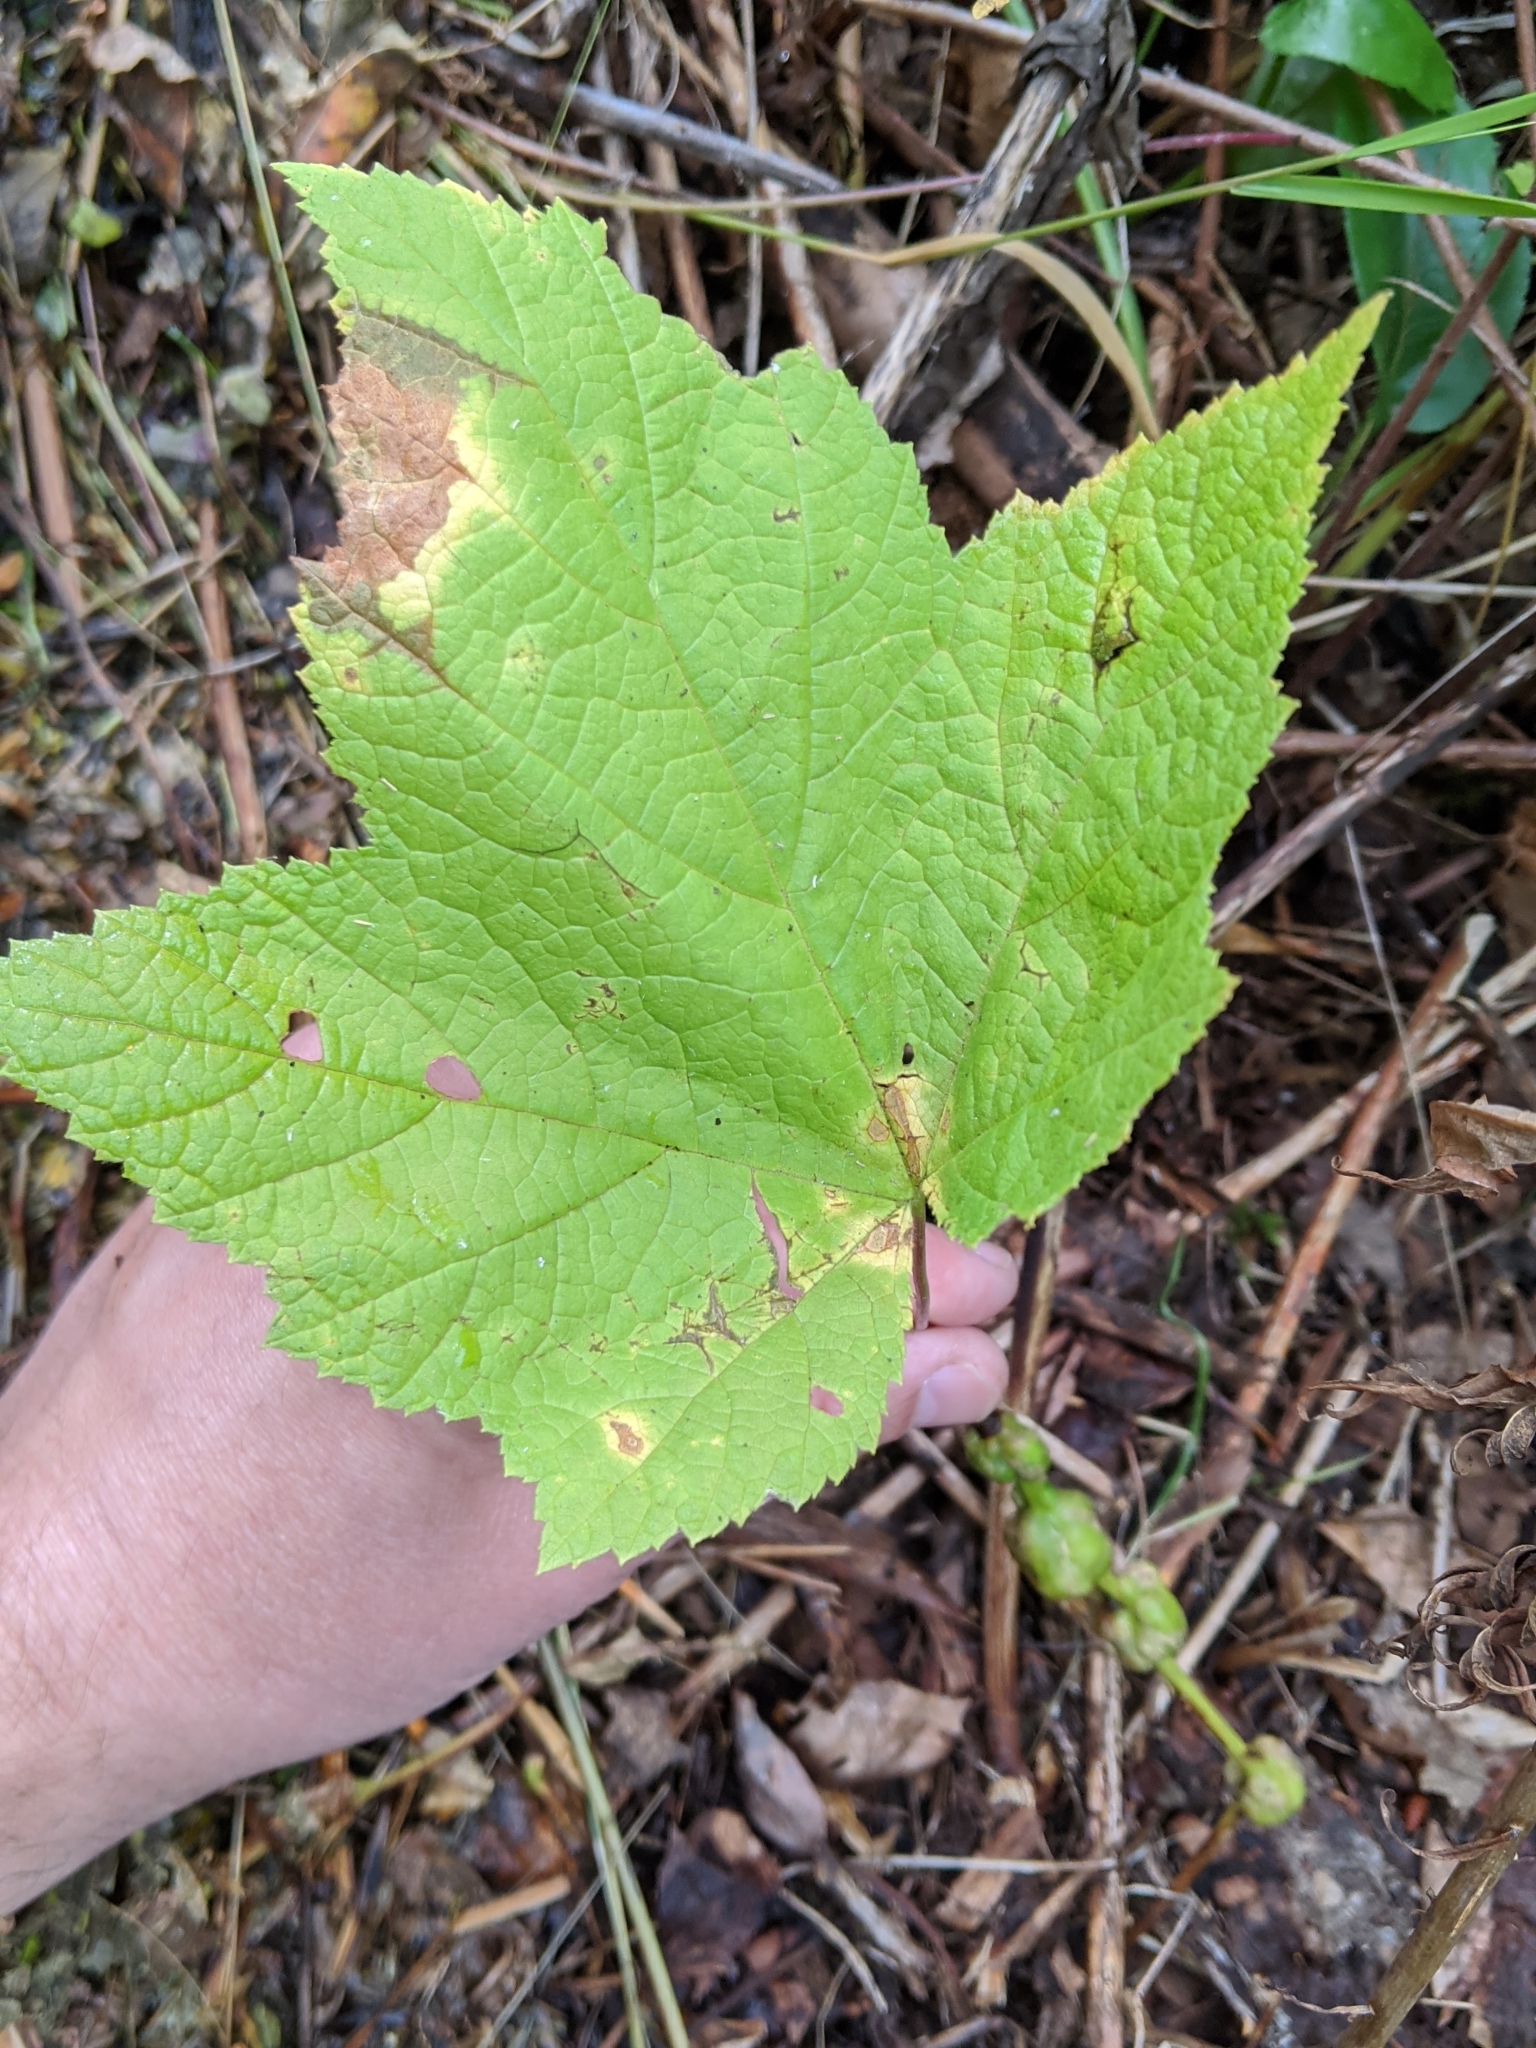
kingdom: Animalia
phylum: Arthropoda
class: Insecta
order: Hymenoptera
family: Cynipidae
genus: Diastrophus
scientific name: Diastrophus
